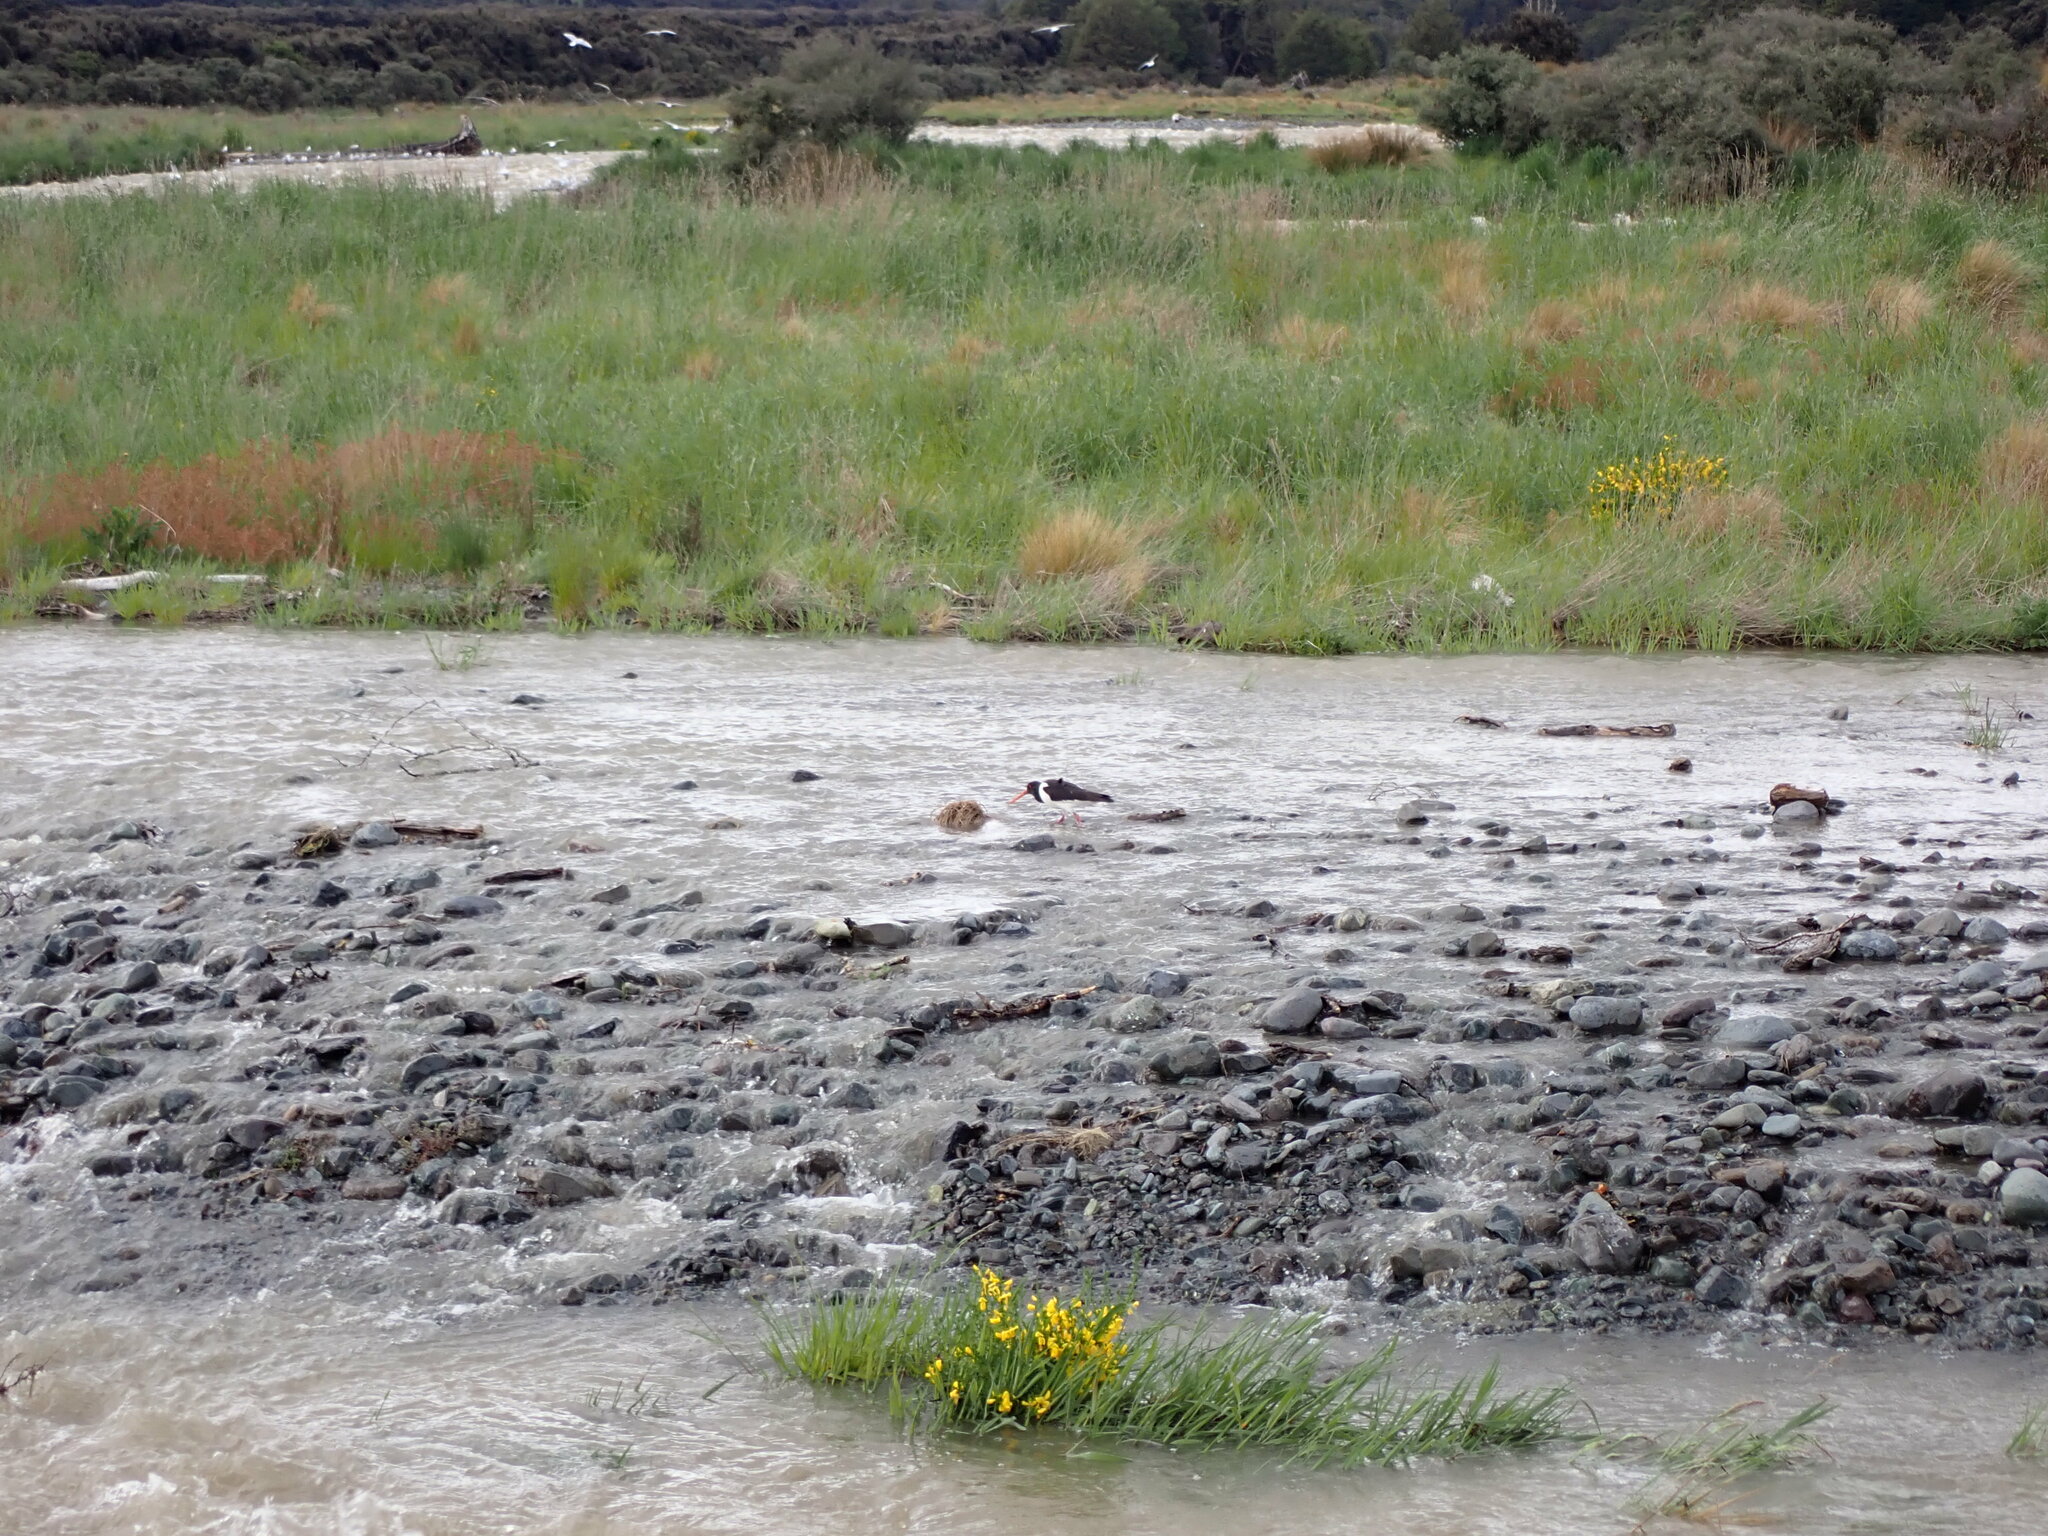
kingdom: Animalia
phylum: Chordata
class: Aves
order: Charadriiformes
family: Haematopodidae
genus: Haematopus
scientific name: Haematopus finschi
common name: South island oystercatcher
